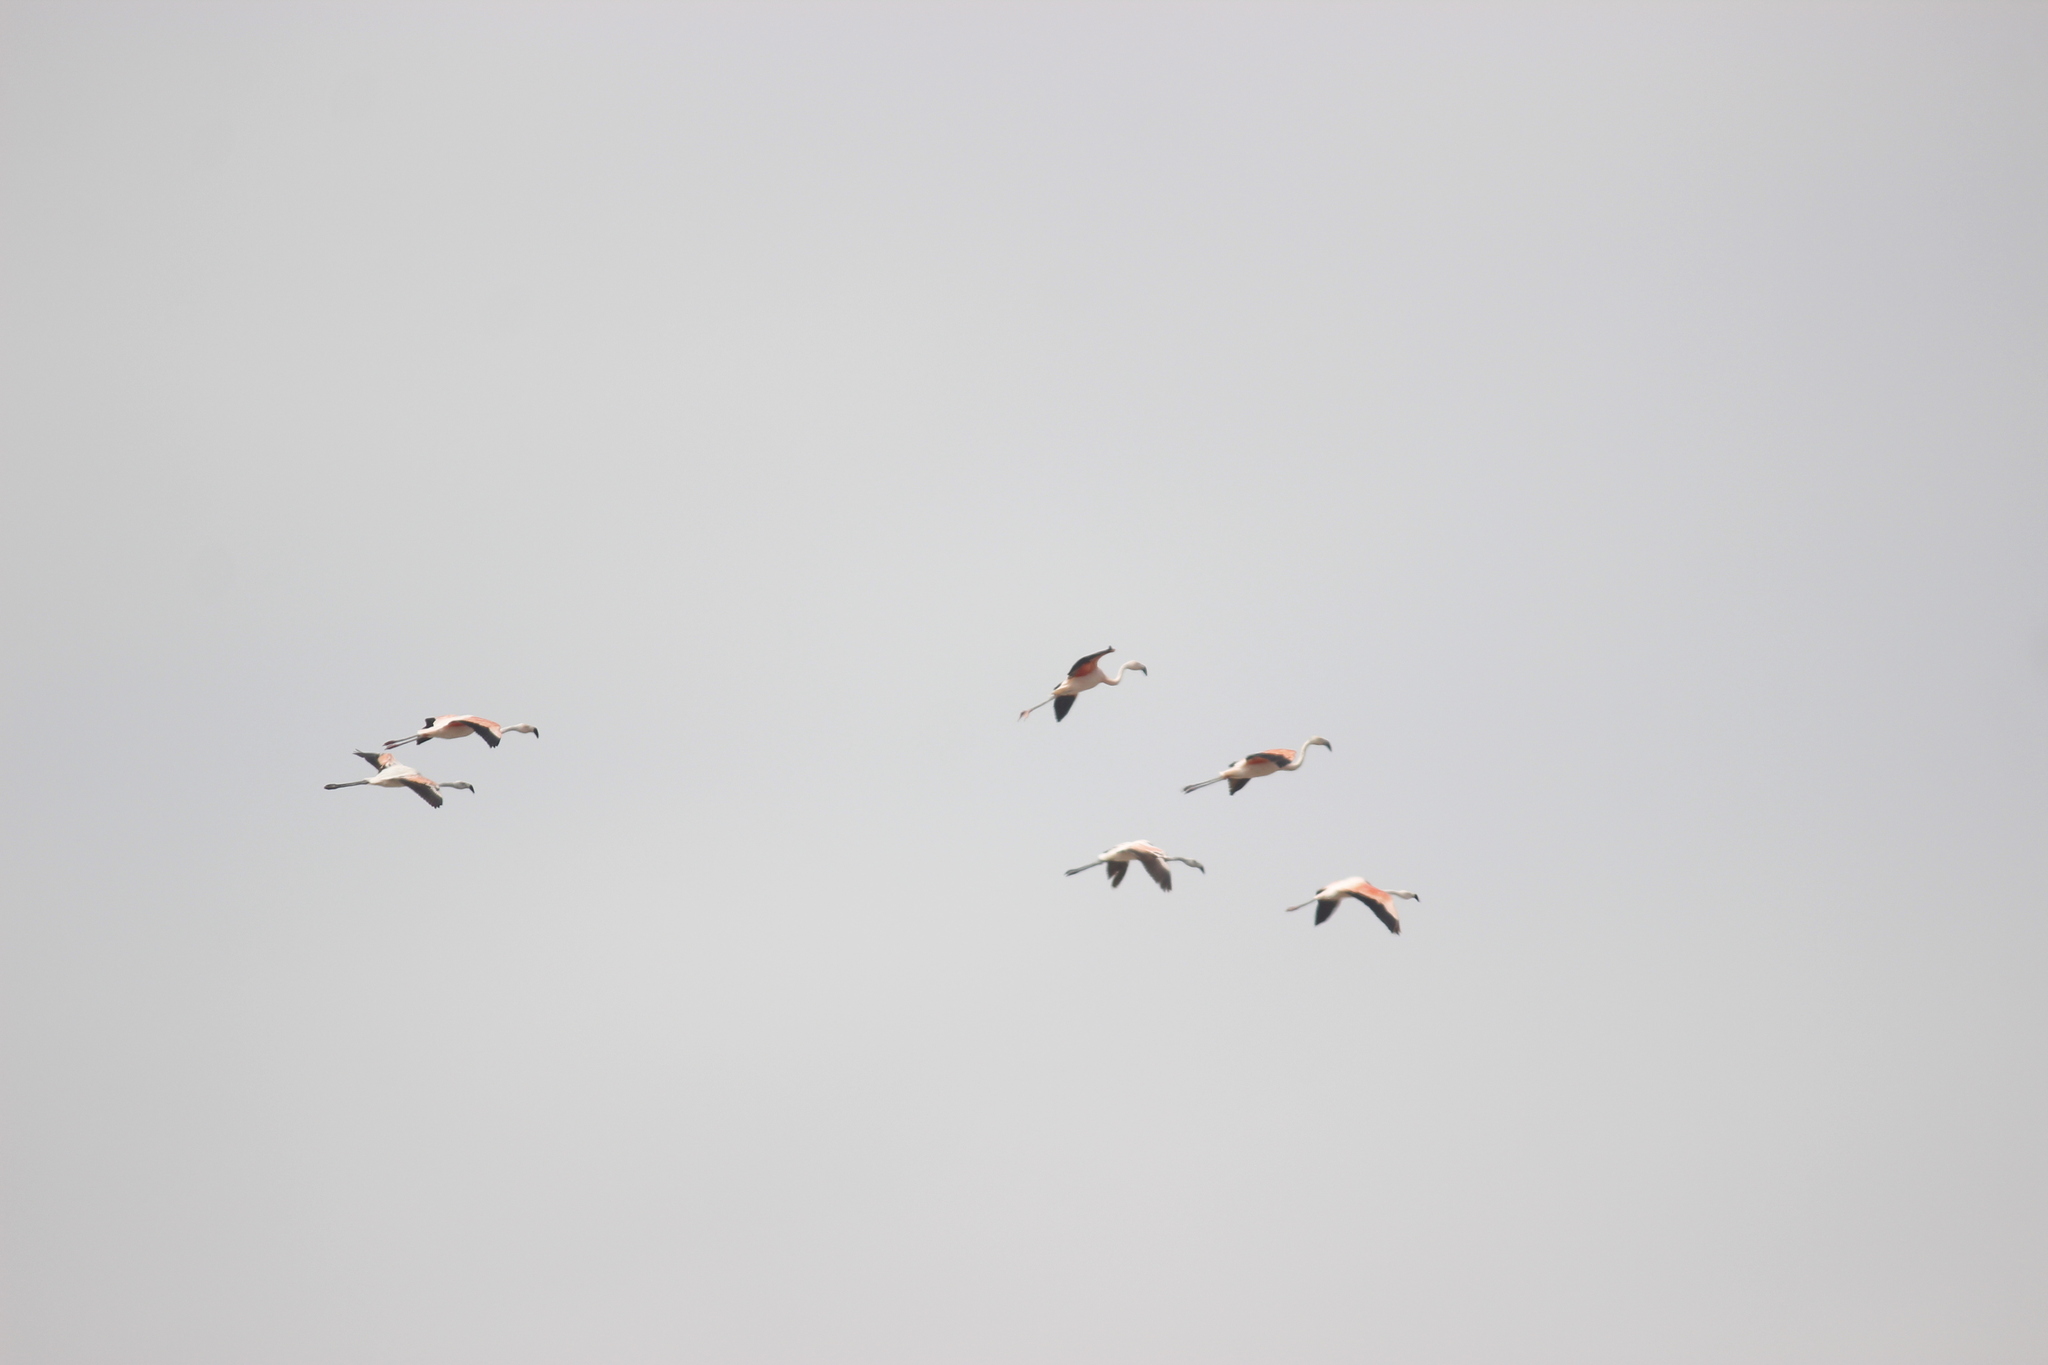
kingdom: Animalia
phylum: Chordata
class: Aves
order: Phoenicopteriformes
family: Phoenicopteridae
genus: Phoenicopterus
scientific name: Phoenicopterus chilensis
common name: Chilean flamingo
